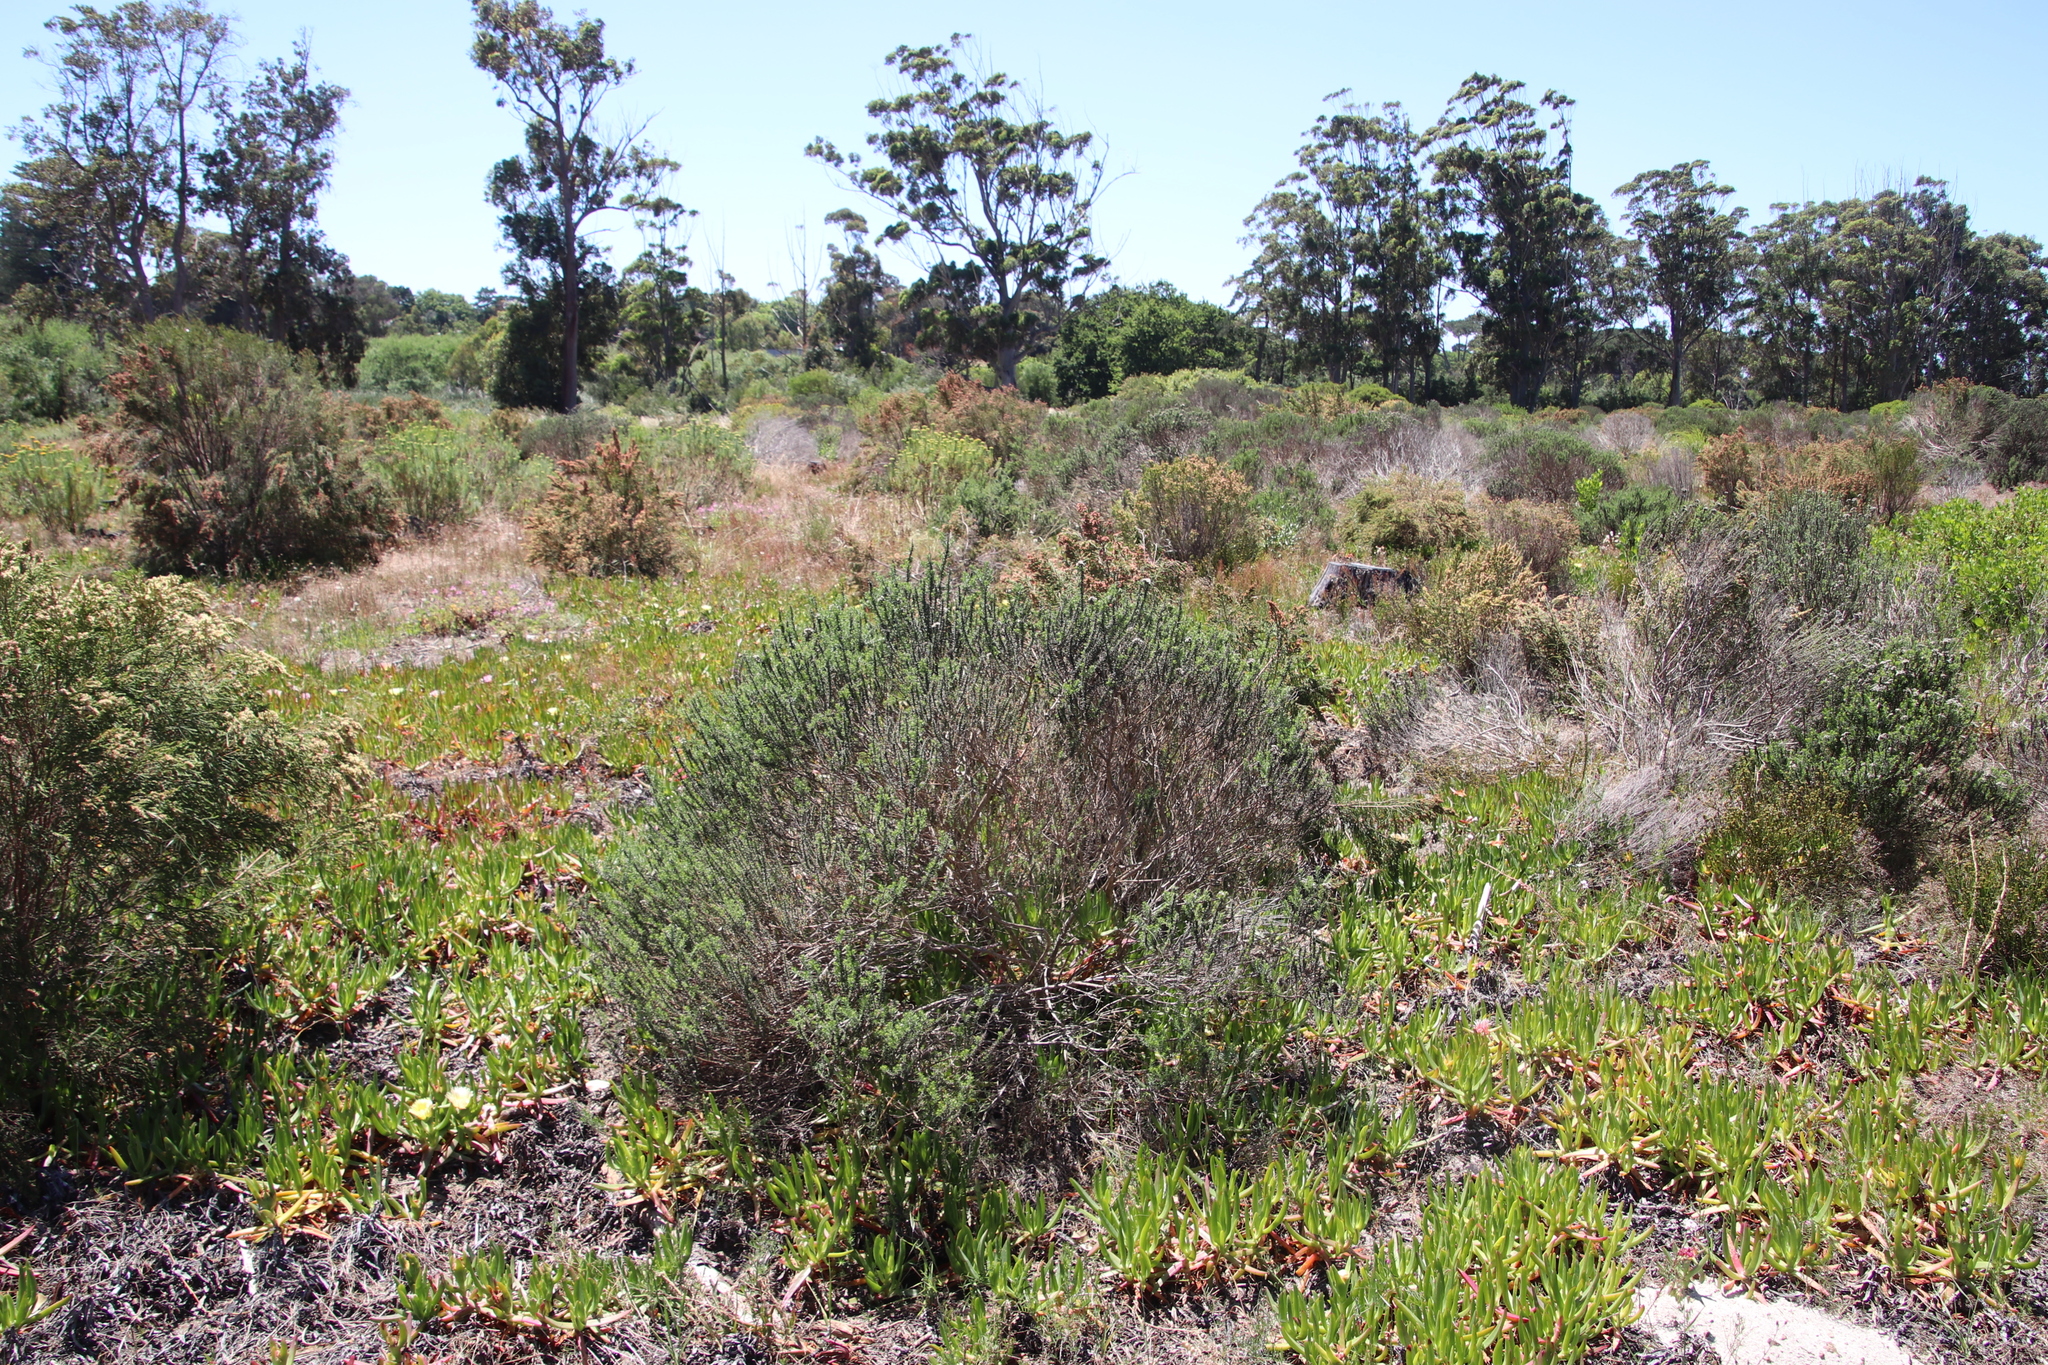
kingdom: Plantae
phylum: Tracheophyta
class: Magnoliopsida
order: Asterales
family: Asteraceae
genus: Metalasia
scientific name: Metalasia densa
